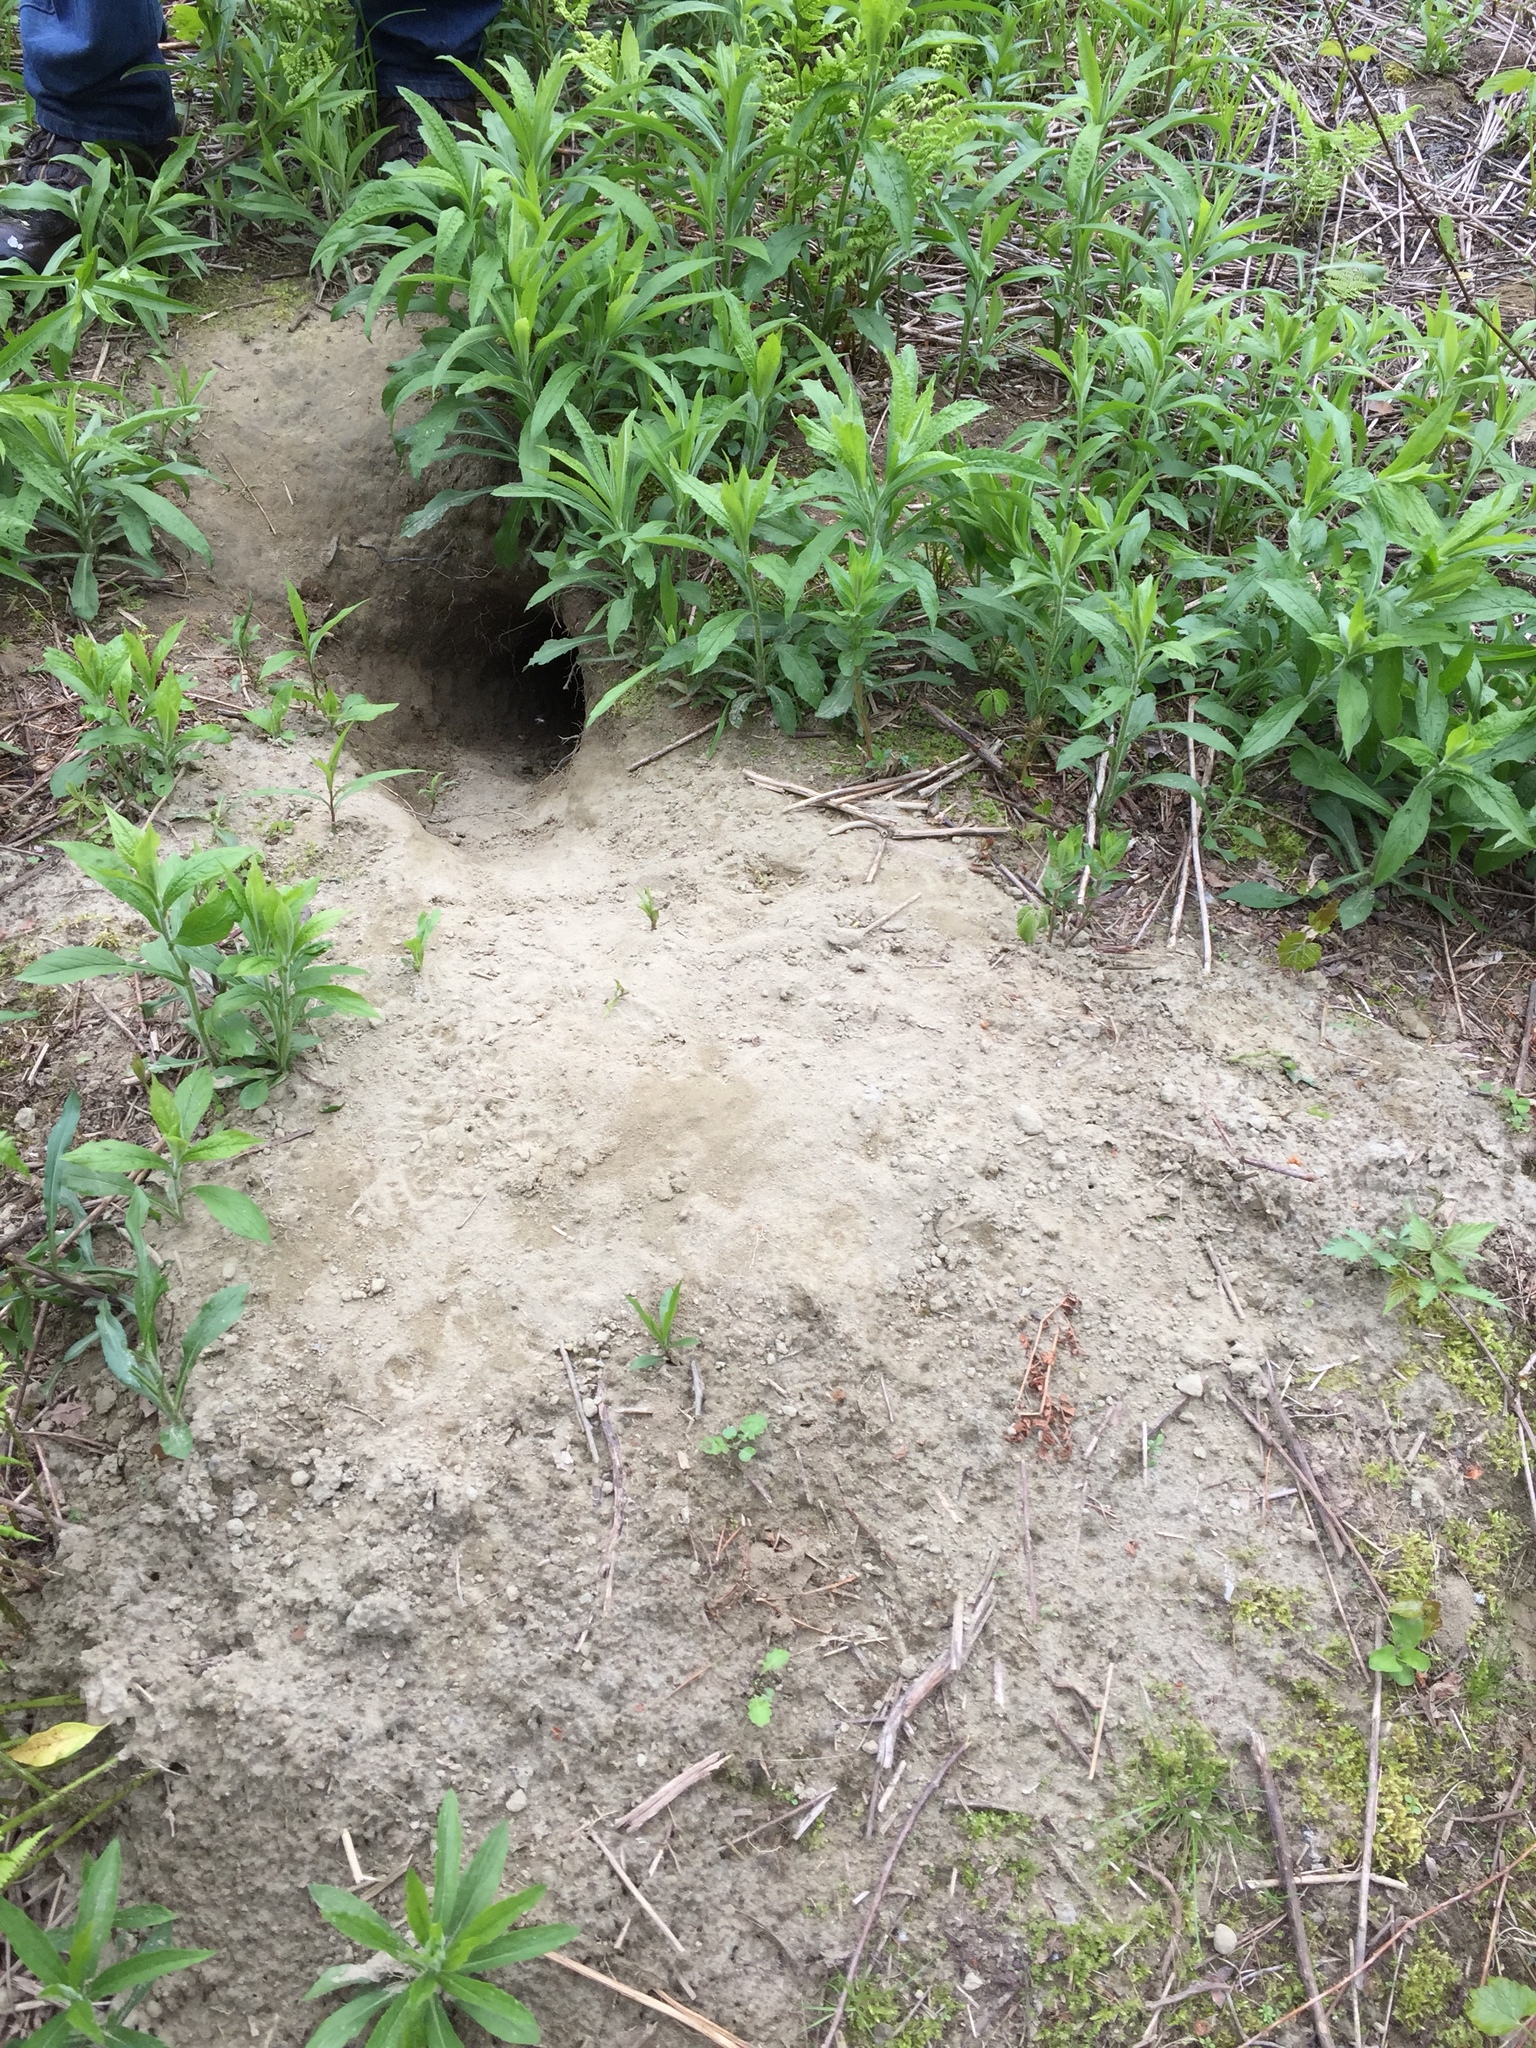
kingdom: Animalia
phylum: Chordata
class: Mammalia
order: Rodentia
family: Sciuridae
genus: Marmota
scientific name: Marmota monax
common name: Groundhog
